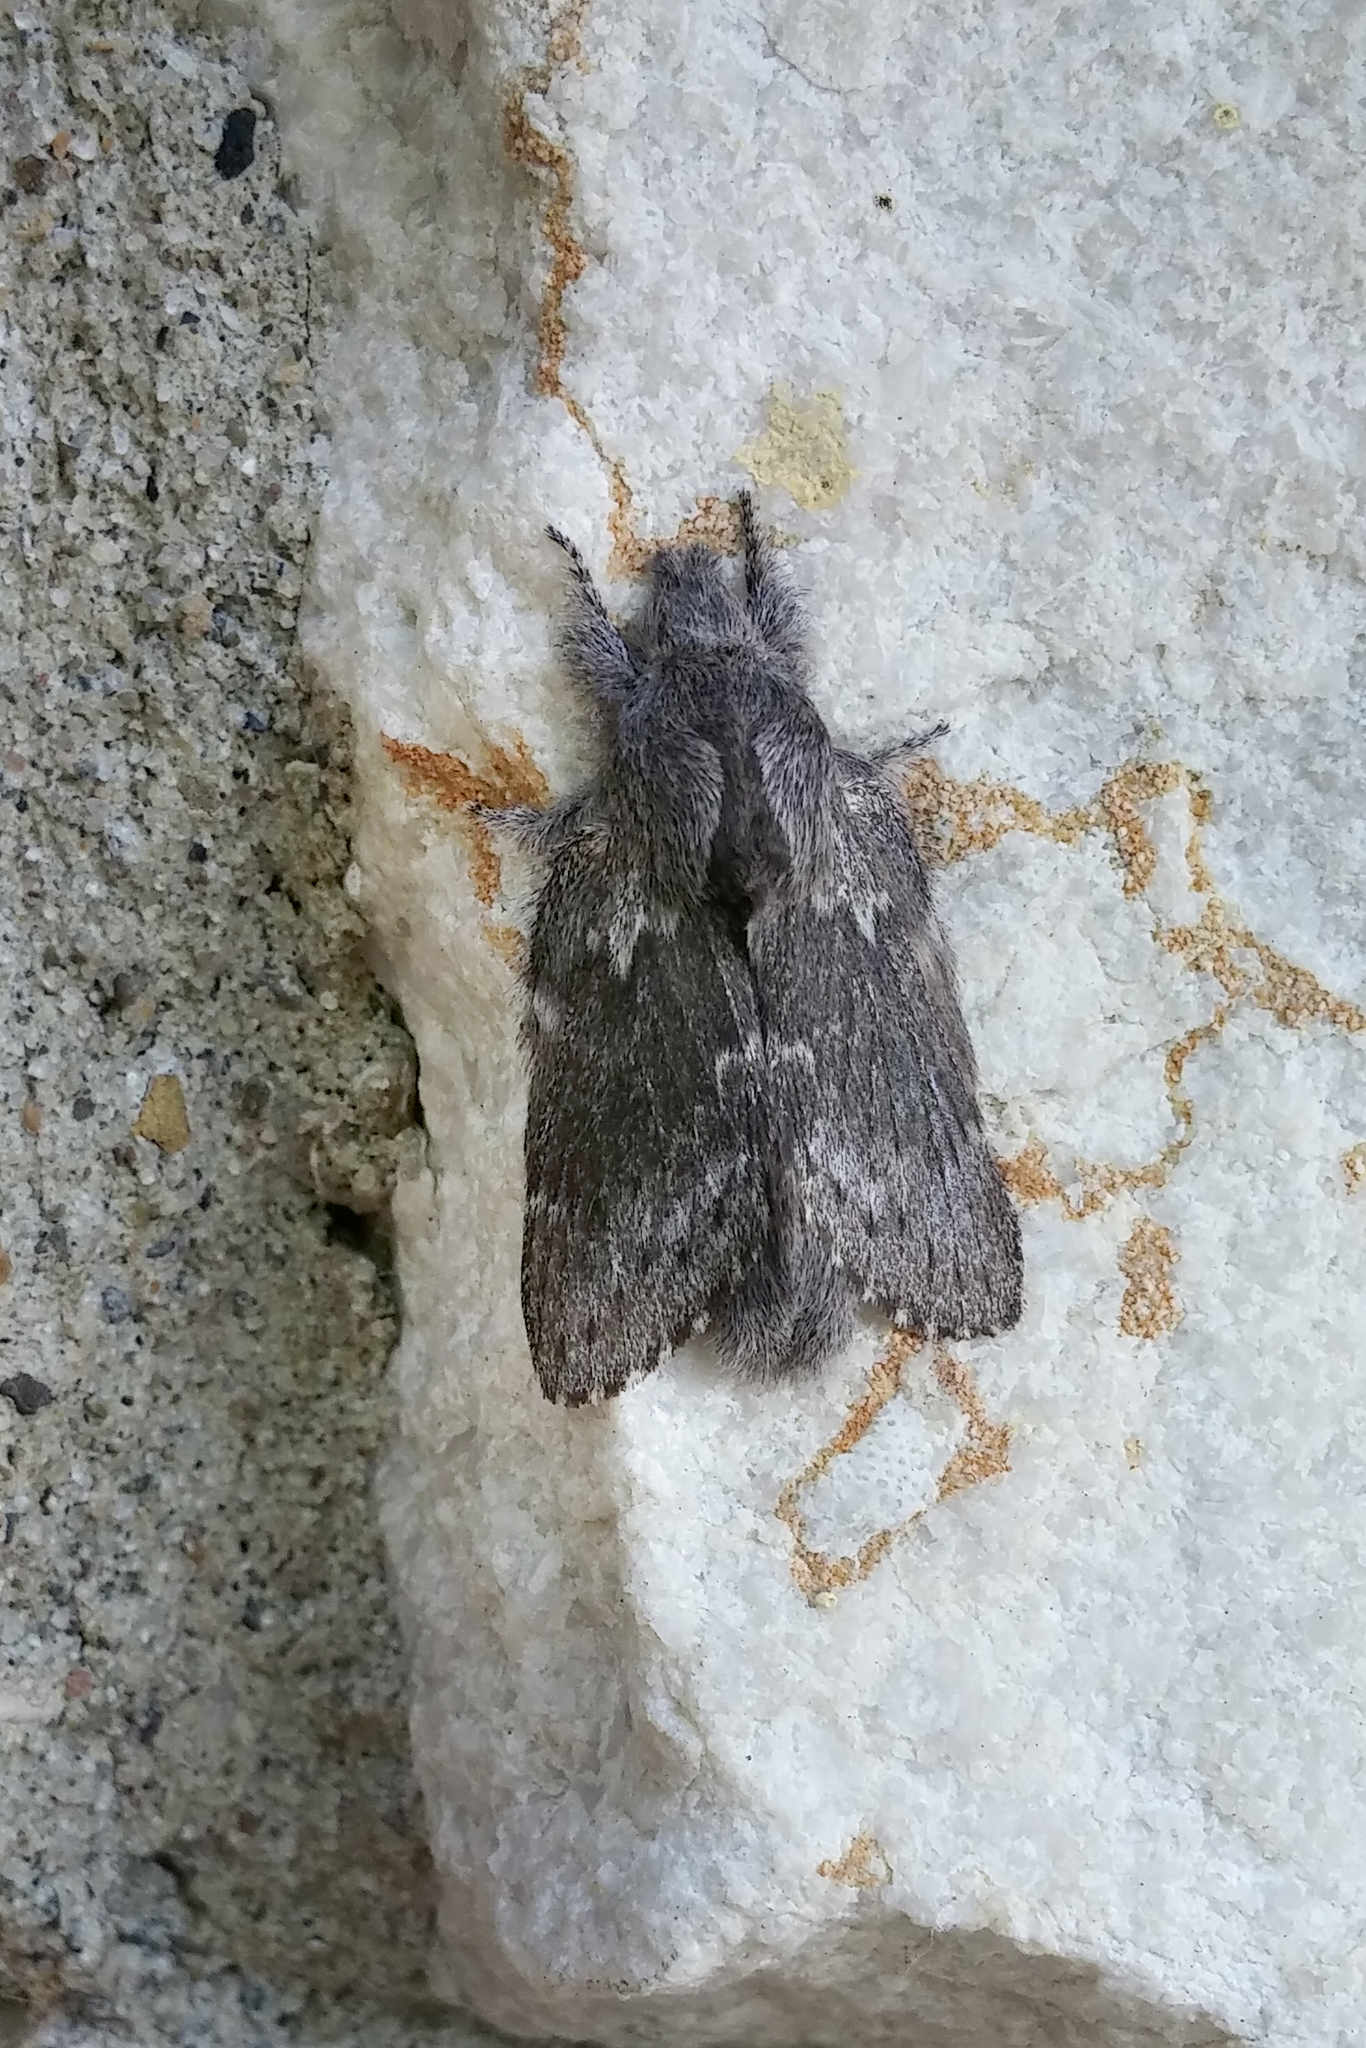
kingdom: Animalia
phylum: Arthropoda
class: Insecta
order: Lepidoptera
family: Lasiocampidae
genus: Heteropacha
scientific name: Heteropacha rileyana
